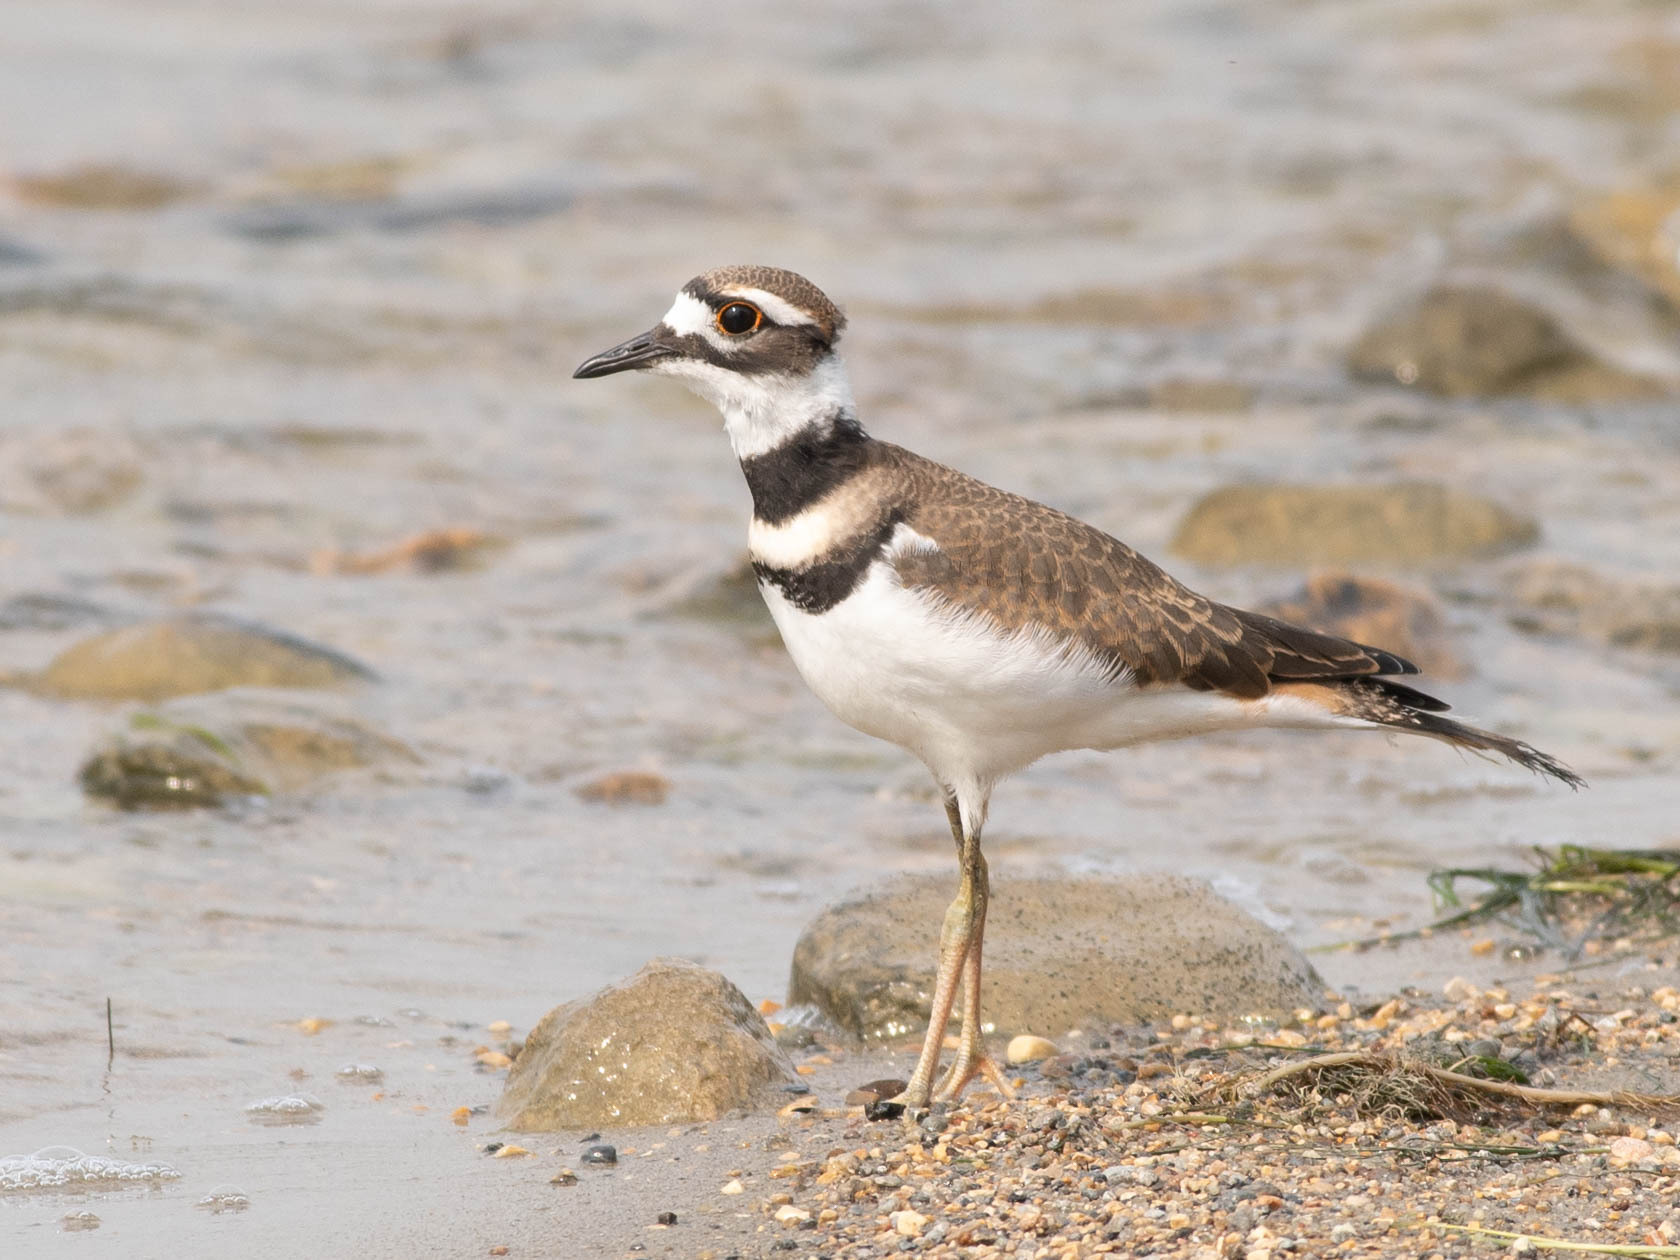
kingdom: Animalia
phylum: Chordata
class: Aves
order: Charadriiformes
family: Charadriidae
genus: Charadrius
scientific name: Charadrius vociferus
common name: Killdeer
